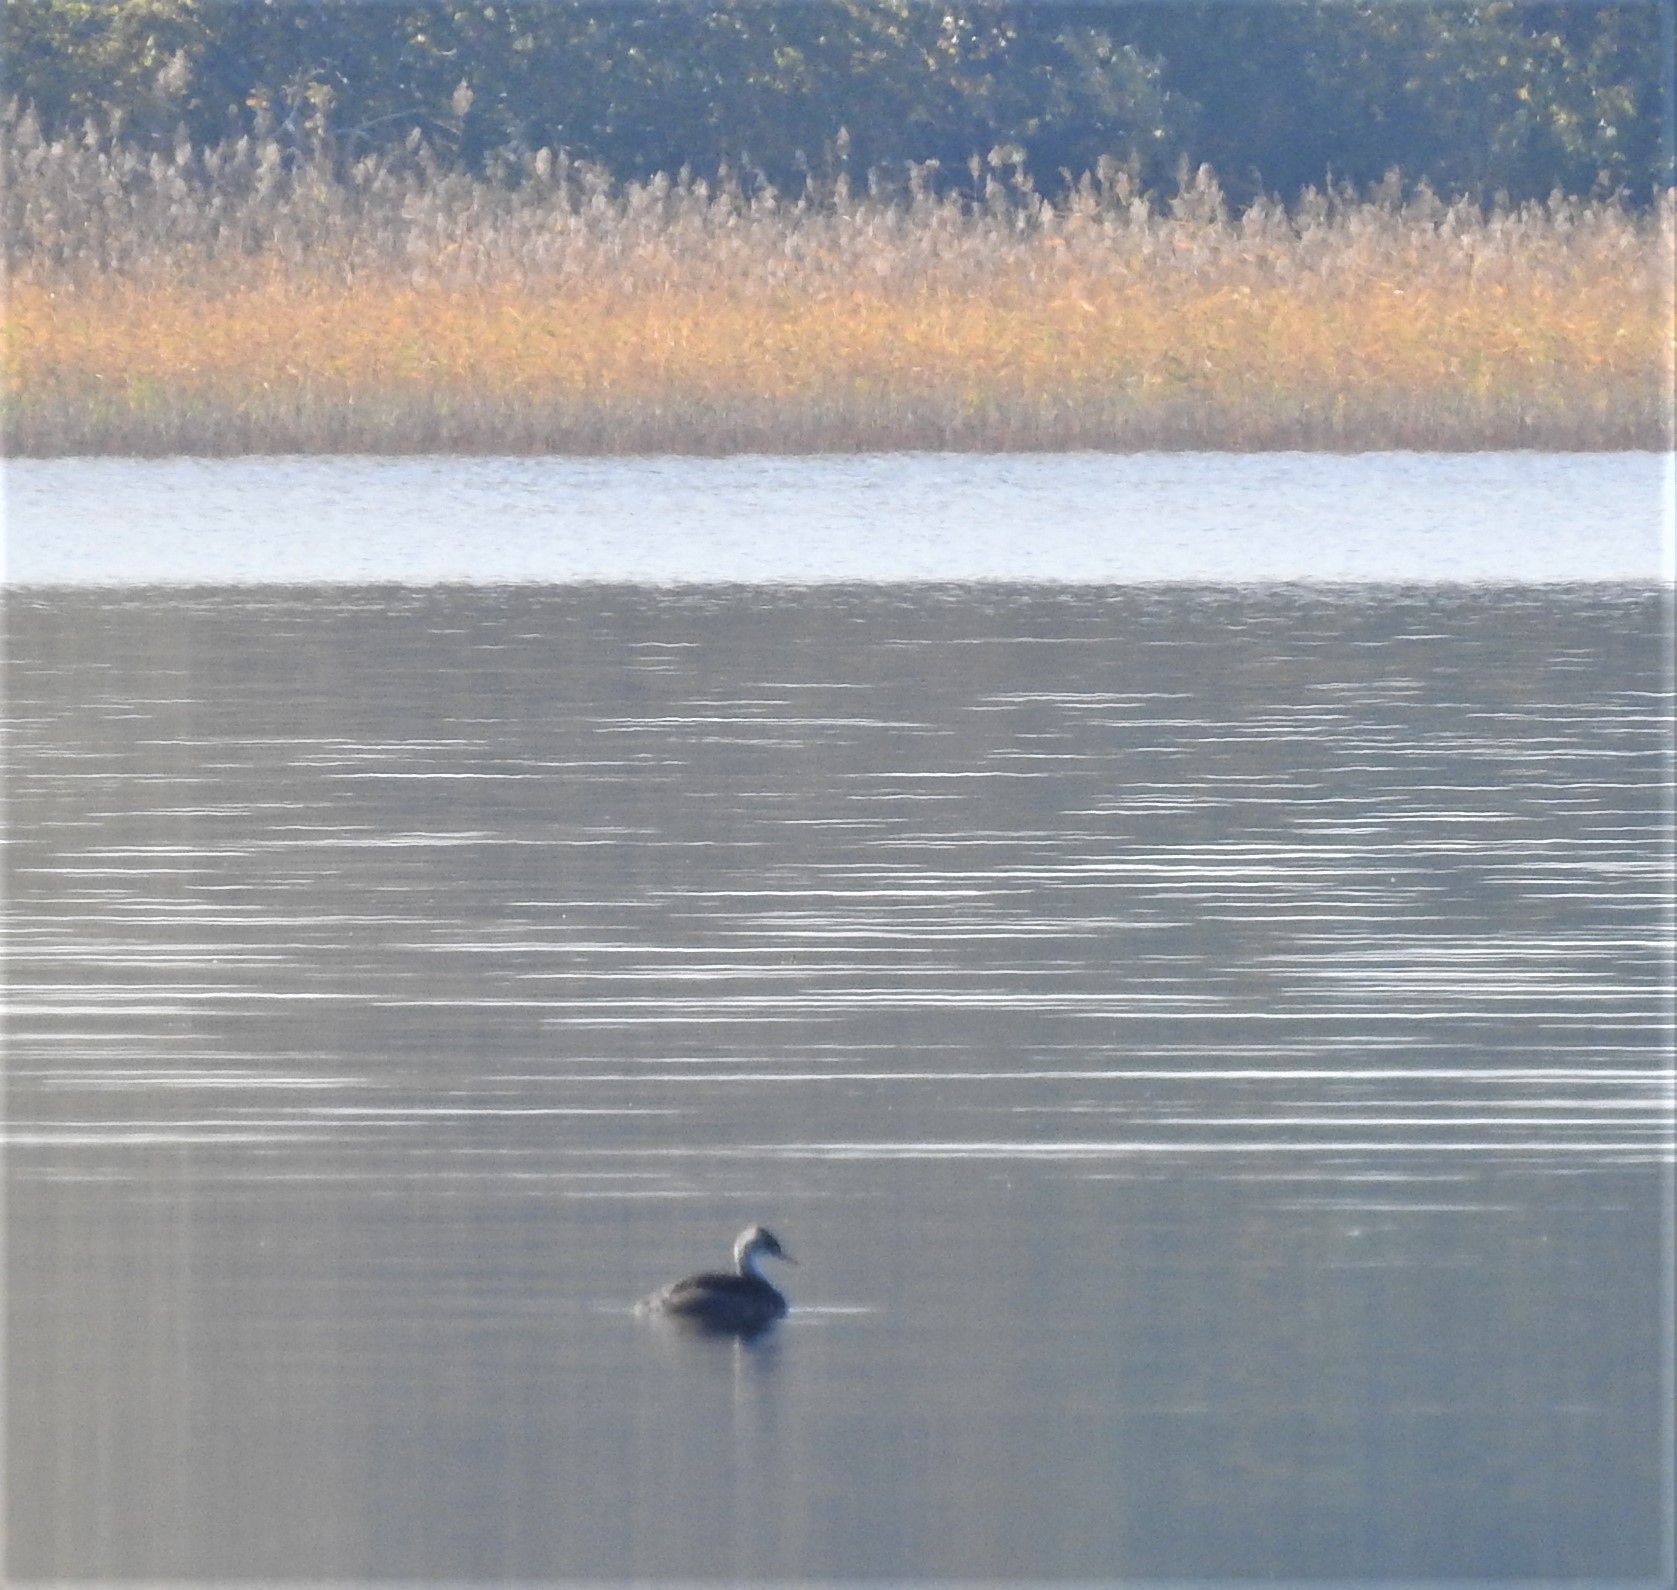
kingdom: Animalia
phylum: Chordata
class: Aves
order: Podicipediformes
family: Podicipedidae
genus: Podiceps
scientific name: Podiceps cristatus
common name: Great crested grebe
